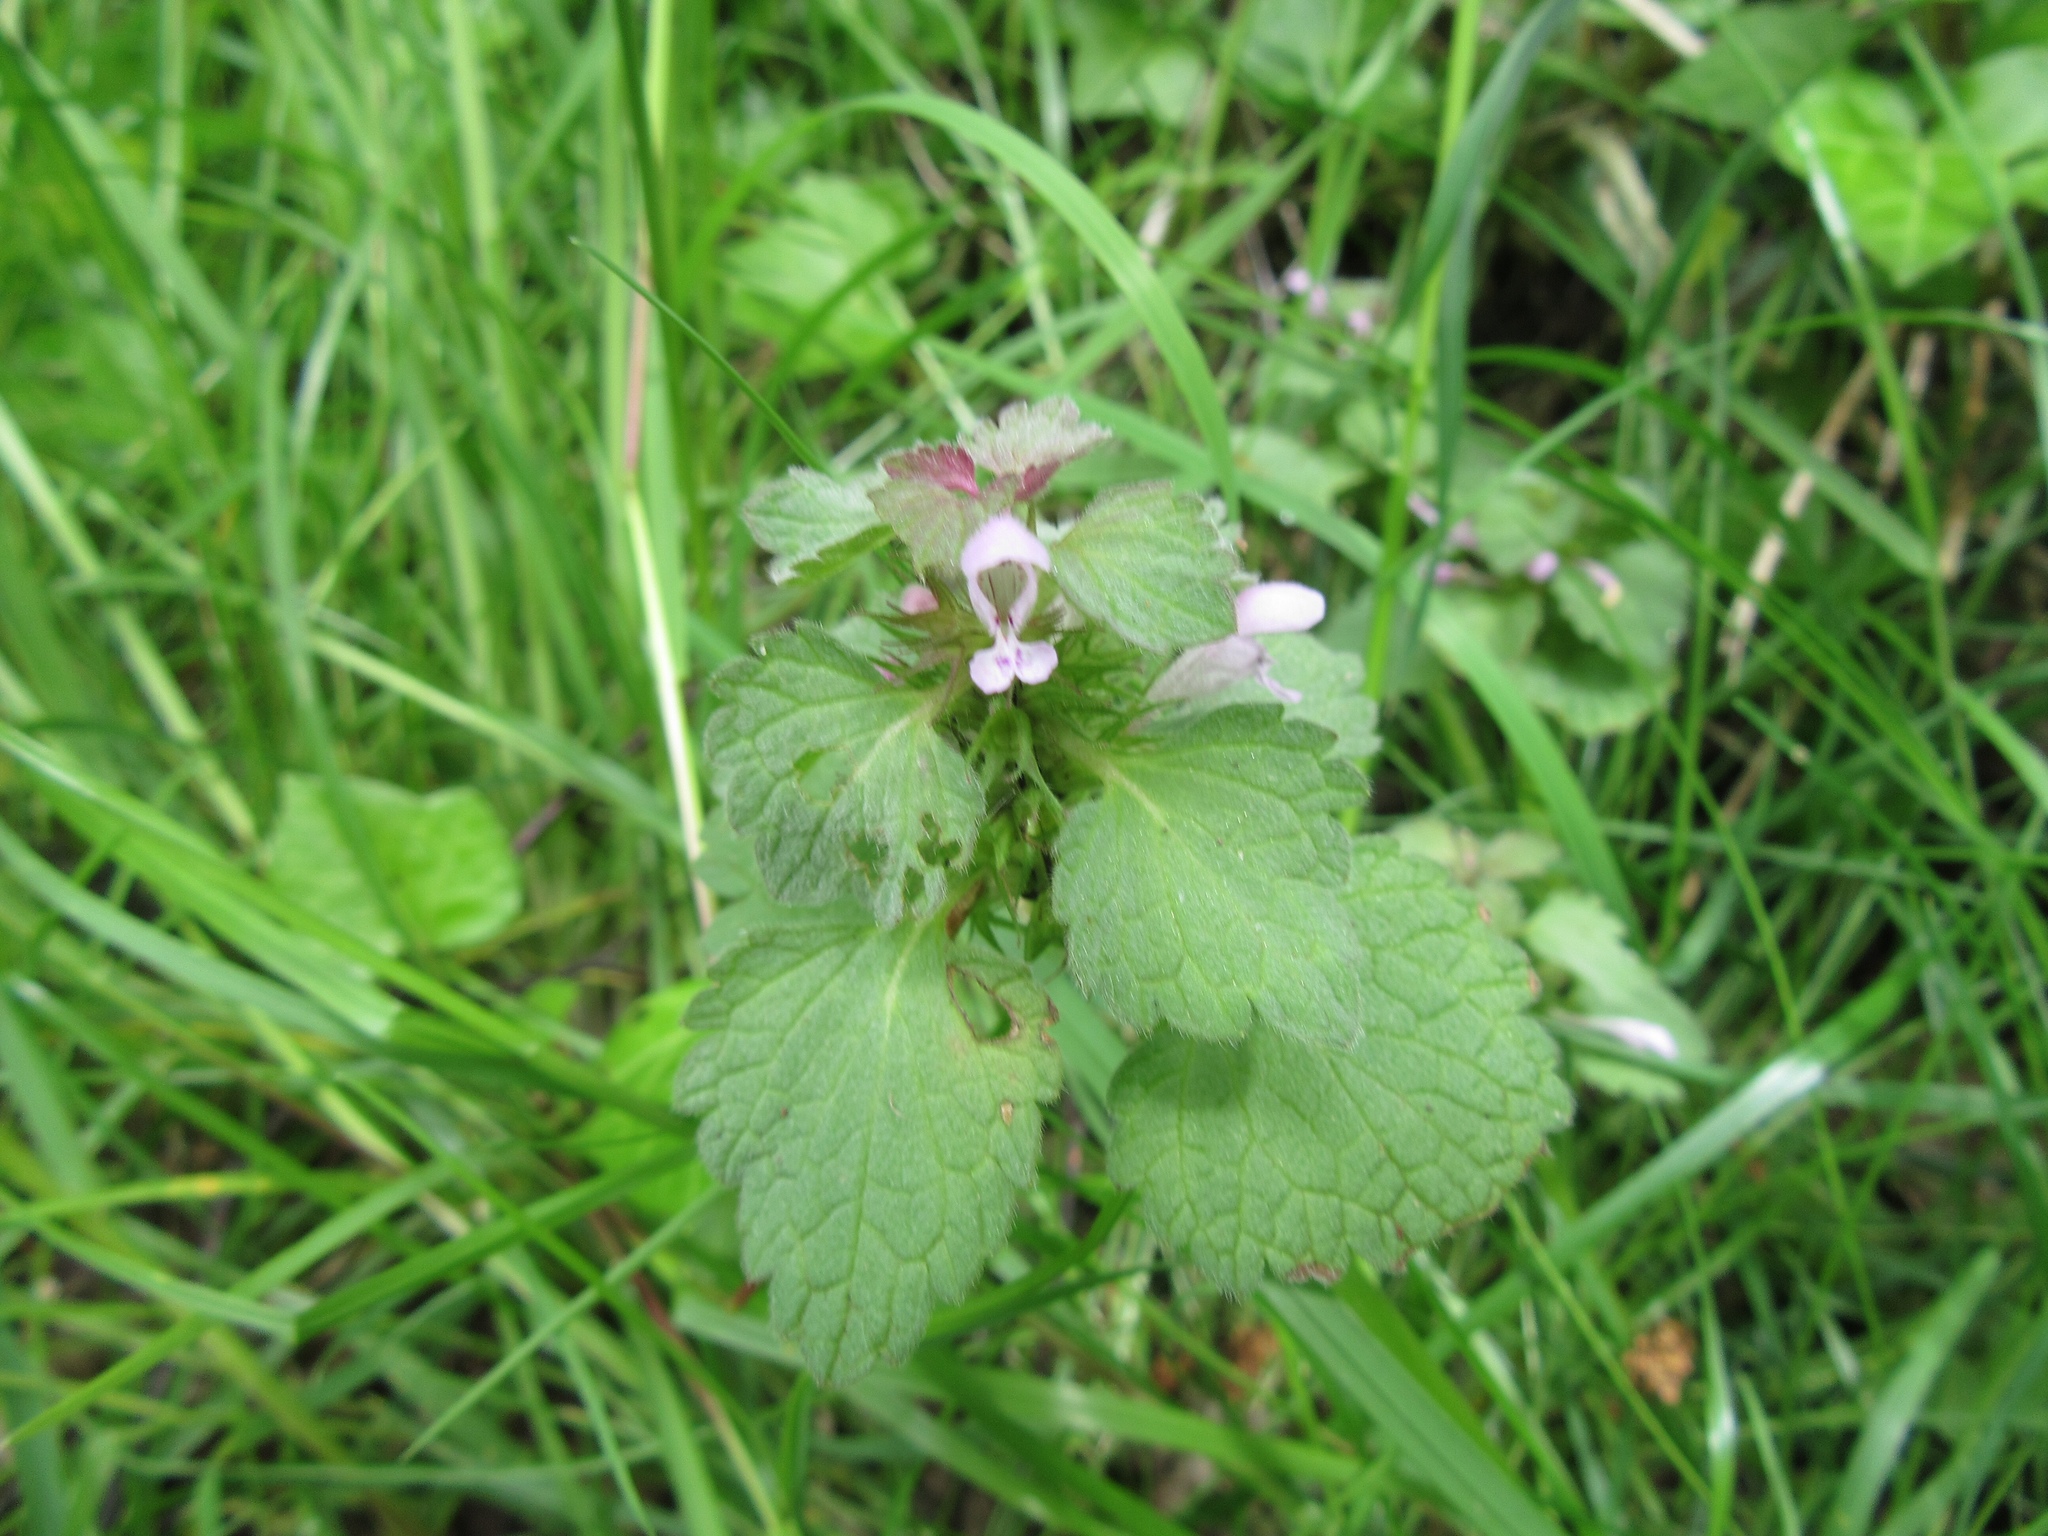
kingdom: Plantae
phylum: Tracheophyta
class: Magnoliopsida
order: Lamiales
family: Lamiaceae
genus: Lamium
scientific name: Lamium purpureum
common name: Red dead-nettle
